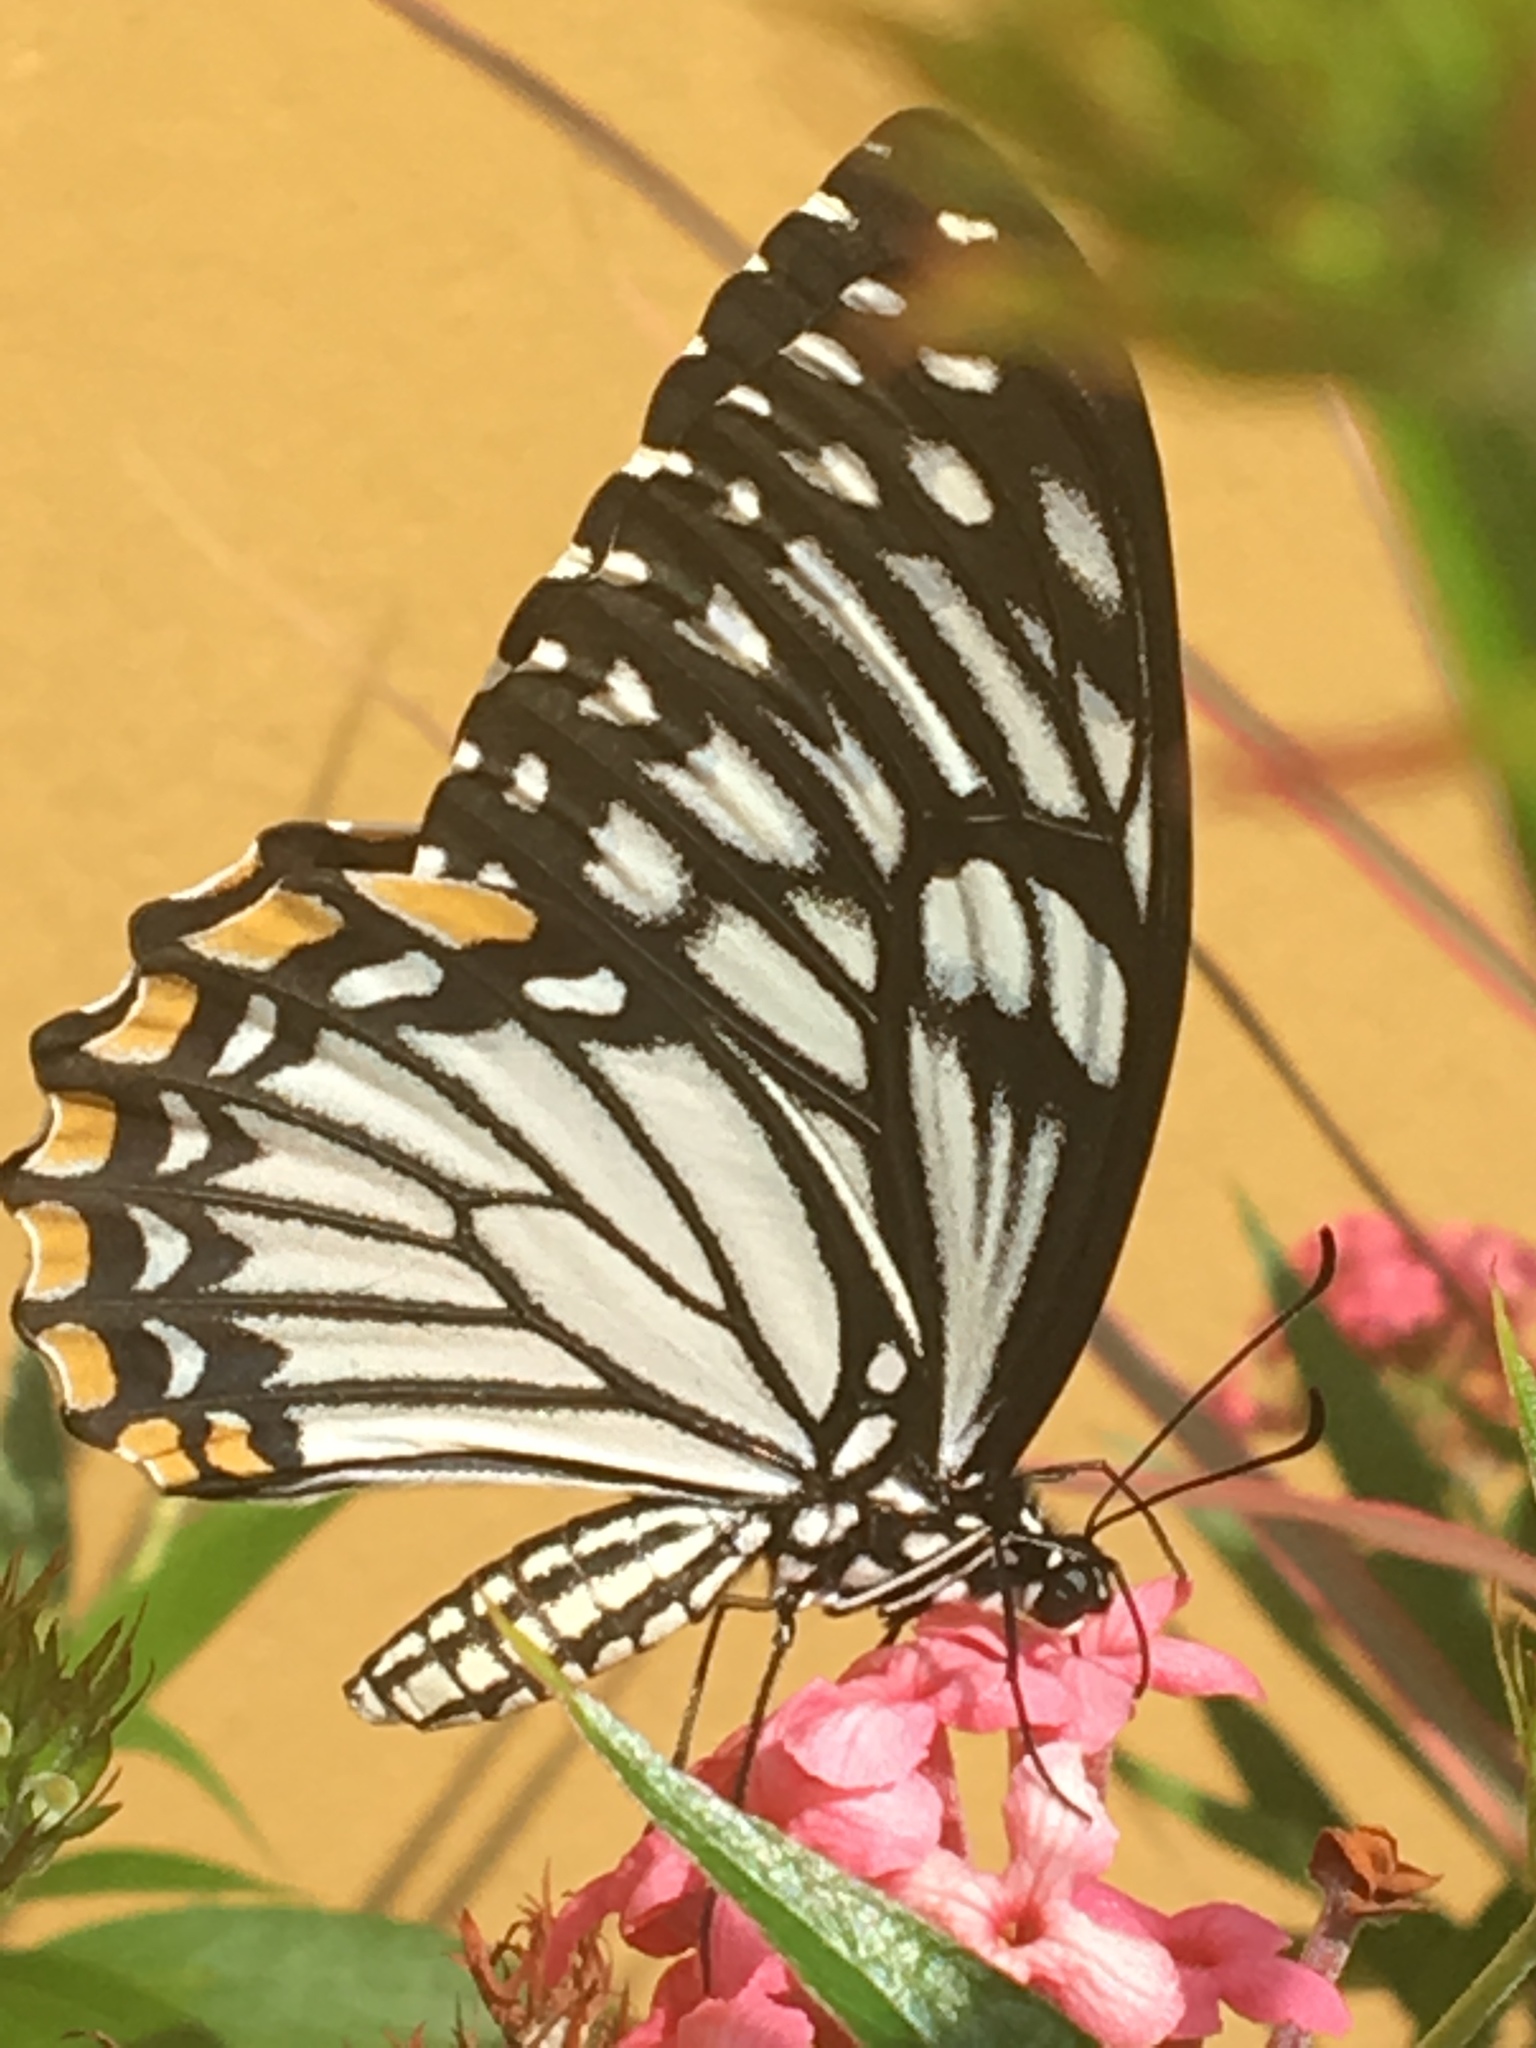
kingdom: Animalia
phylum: Arthropoda
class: Insecta
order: Lepidoptera
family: Papilionidae
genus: Chilasa
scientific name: Chilasa clytia
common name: Common mime
